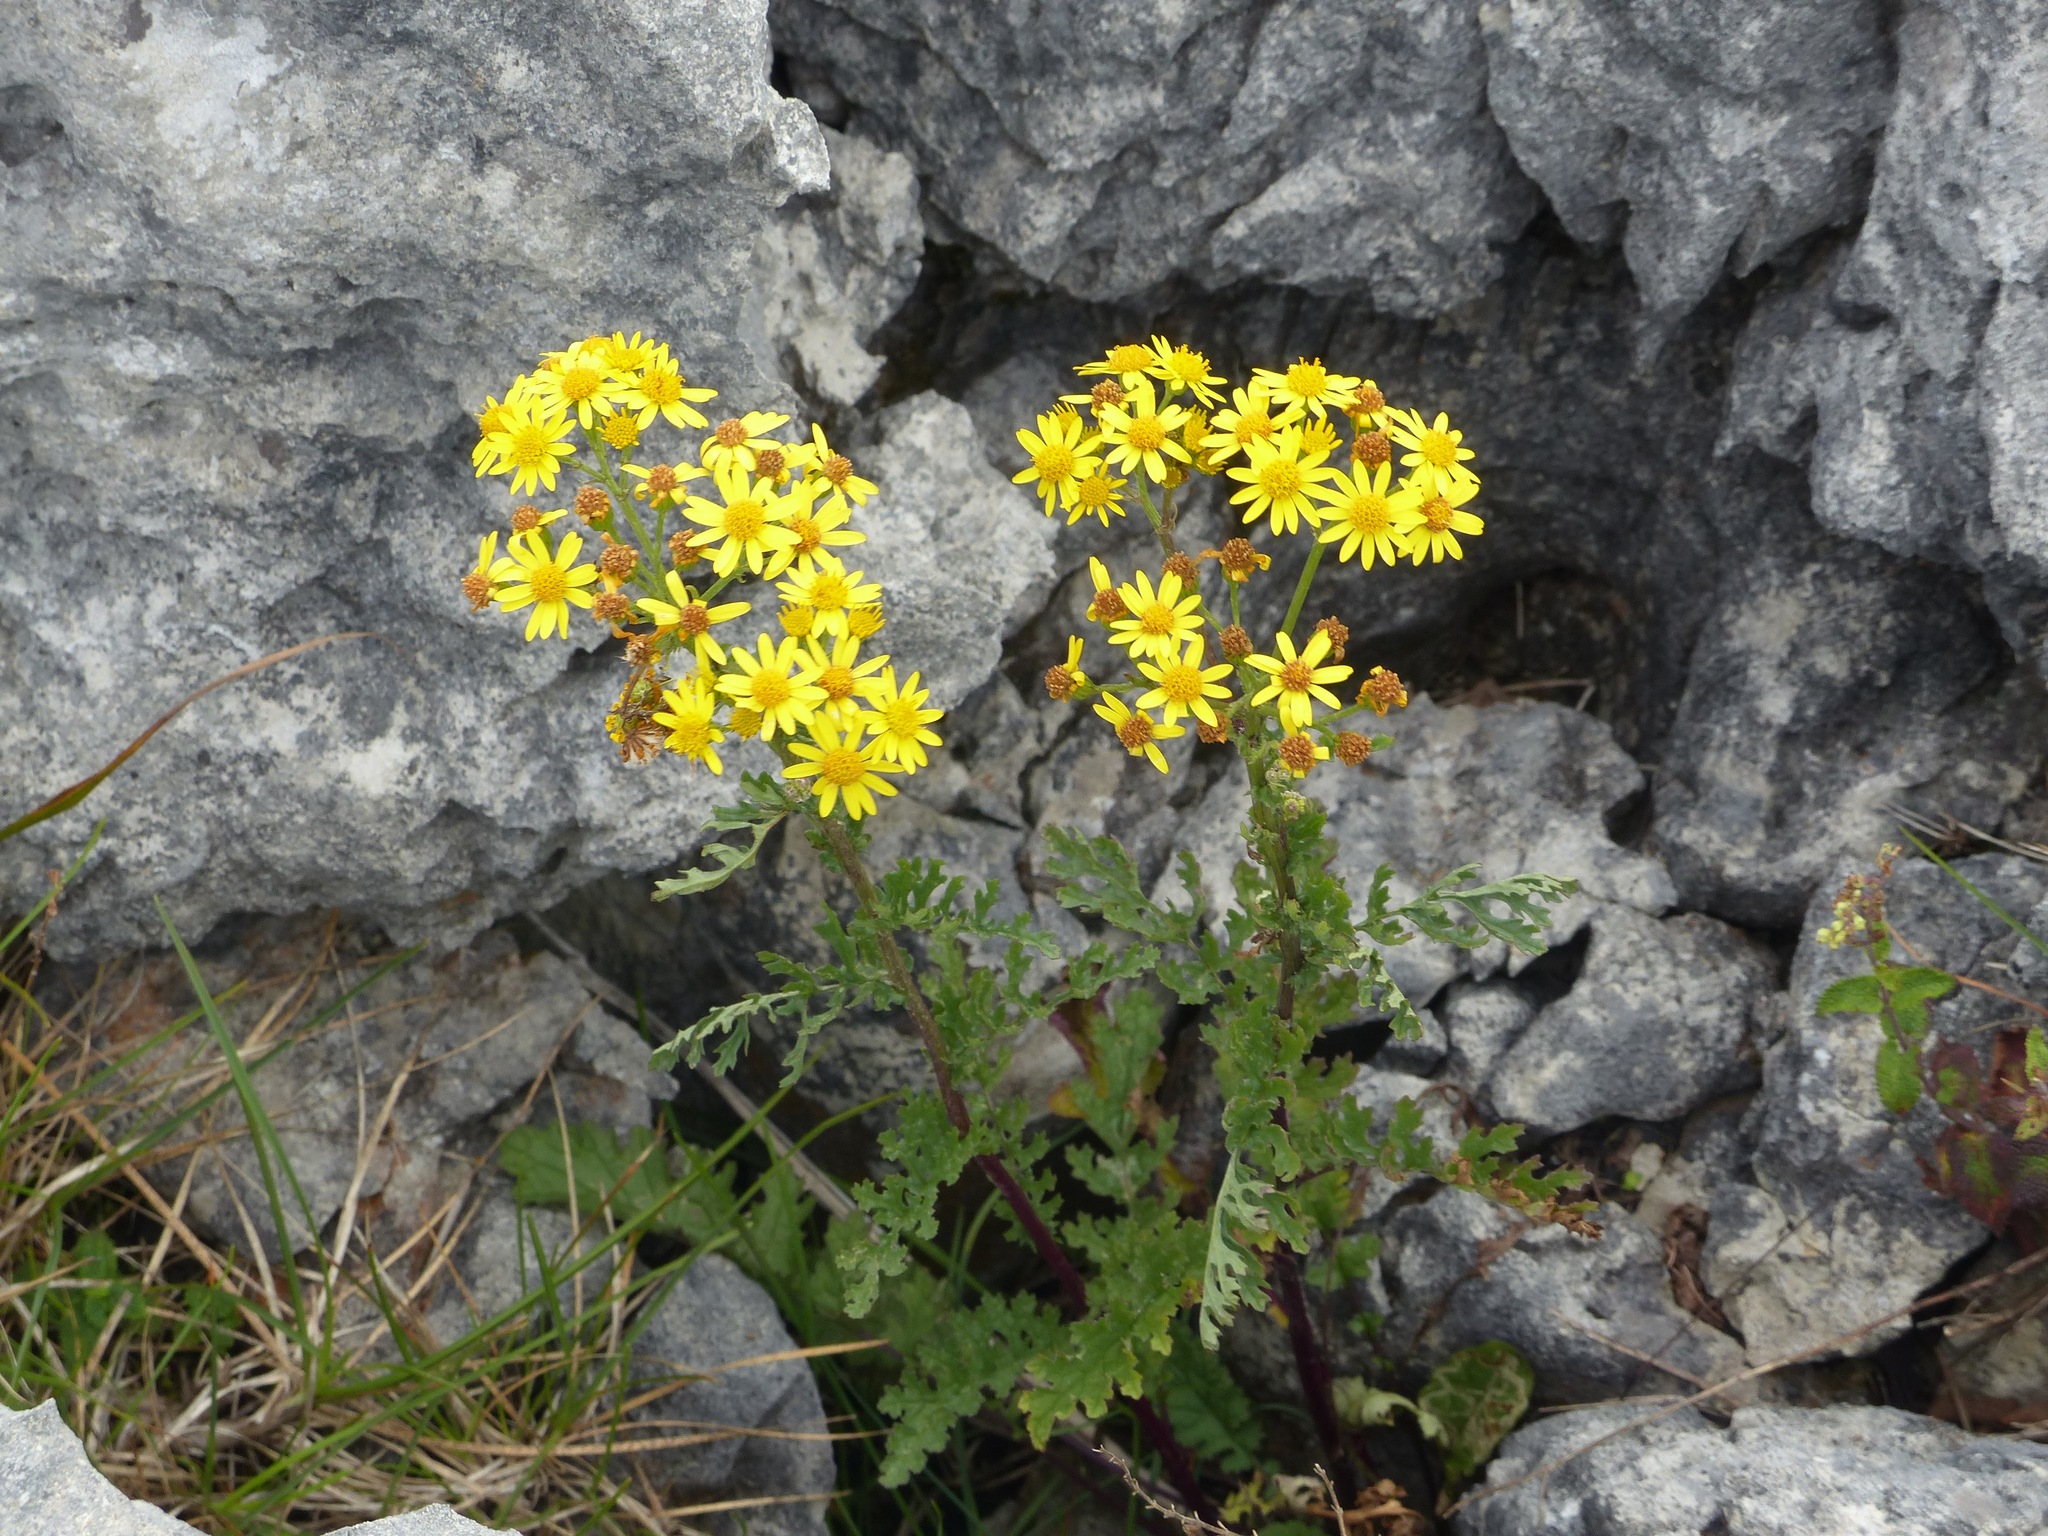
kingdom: Plantae
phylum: Tracheophyta
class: Magnoliopsida
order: Asterales
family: Asteraceae
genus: Jacobaea
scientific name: Jacobaea vulgaris
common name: Stinking willie
